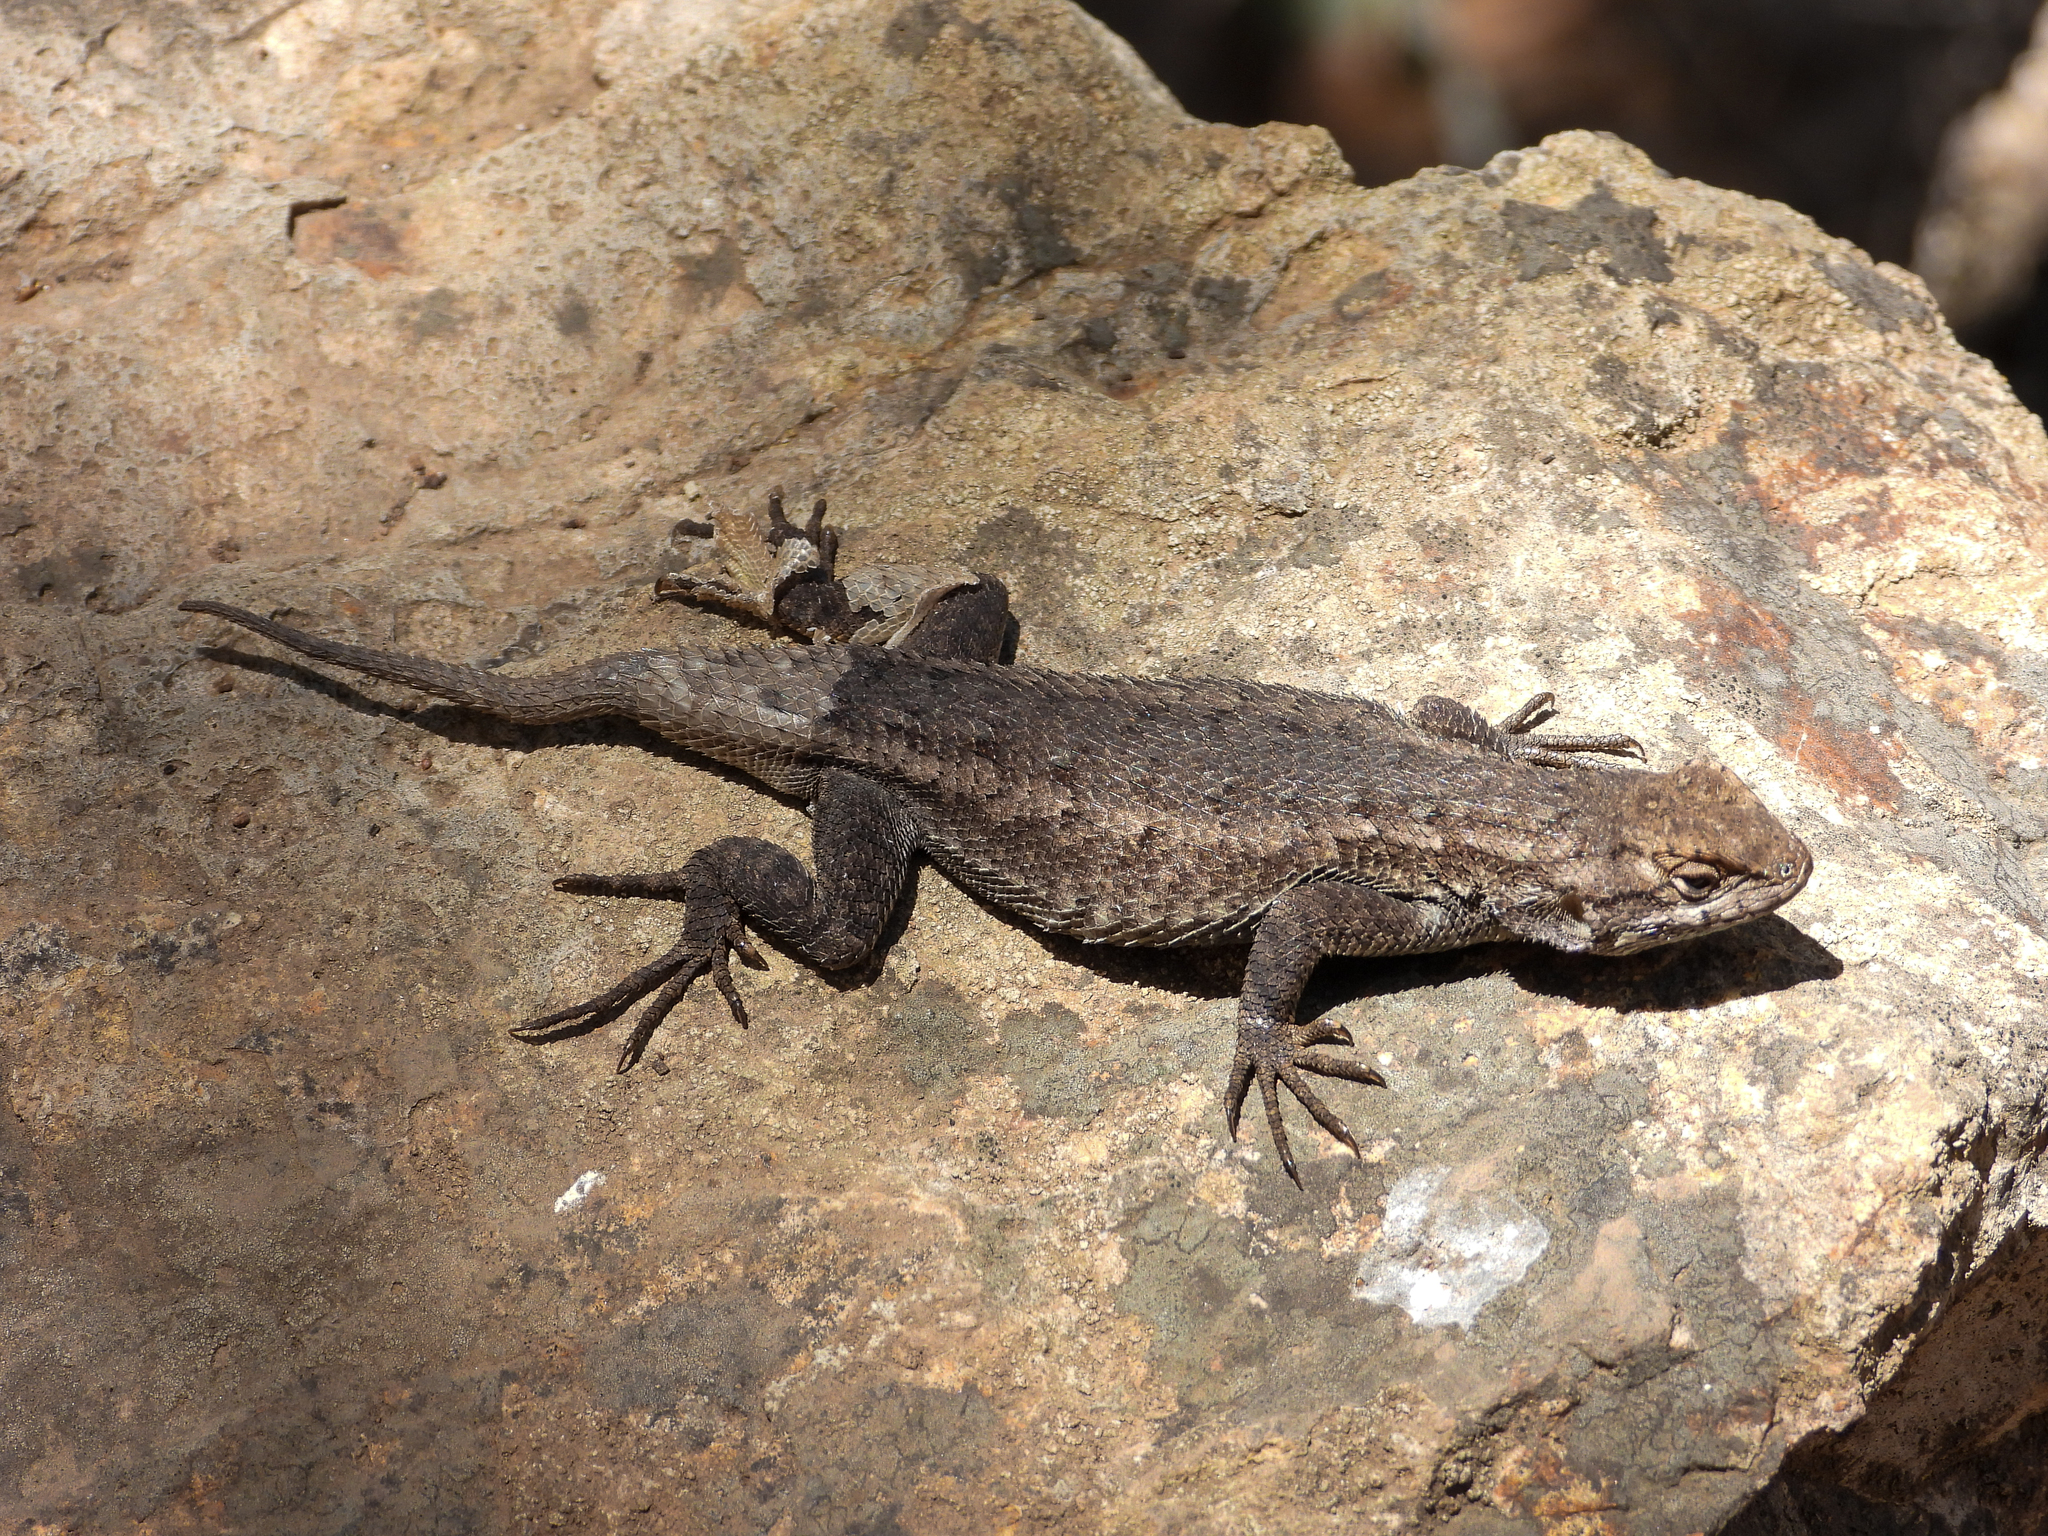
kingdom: Animalia
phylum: Chordata
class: Squamata
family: Phrynosomatidae
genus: Sceloporus
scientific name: Sceloporus occidentalis
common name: Western fence lizard
